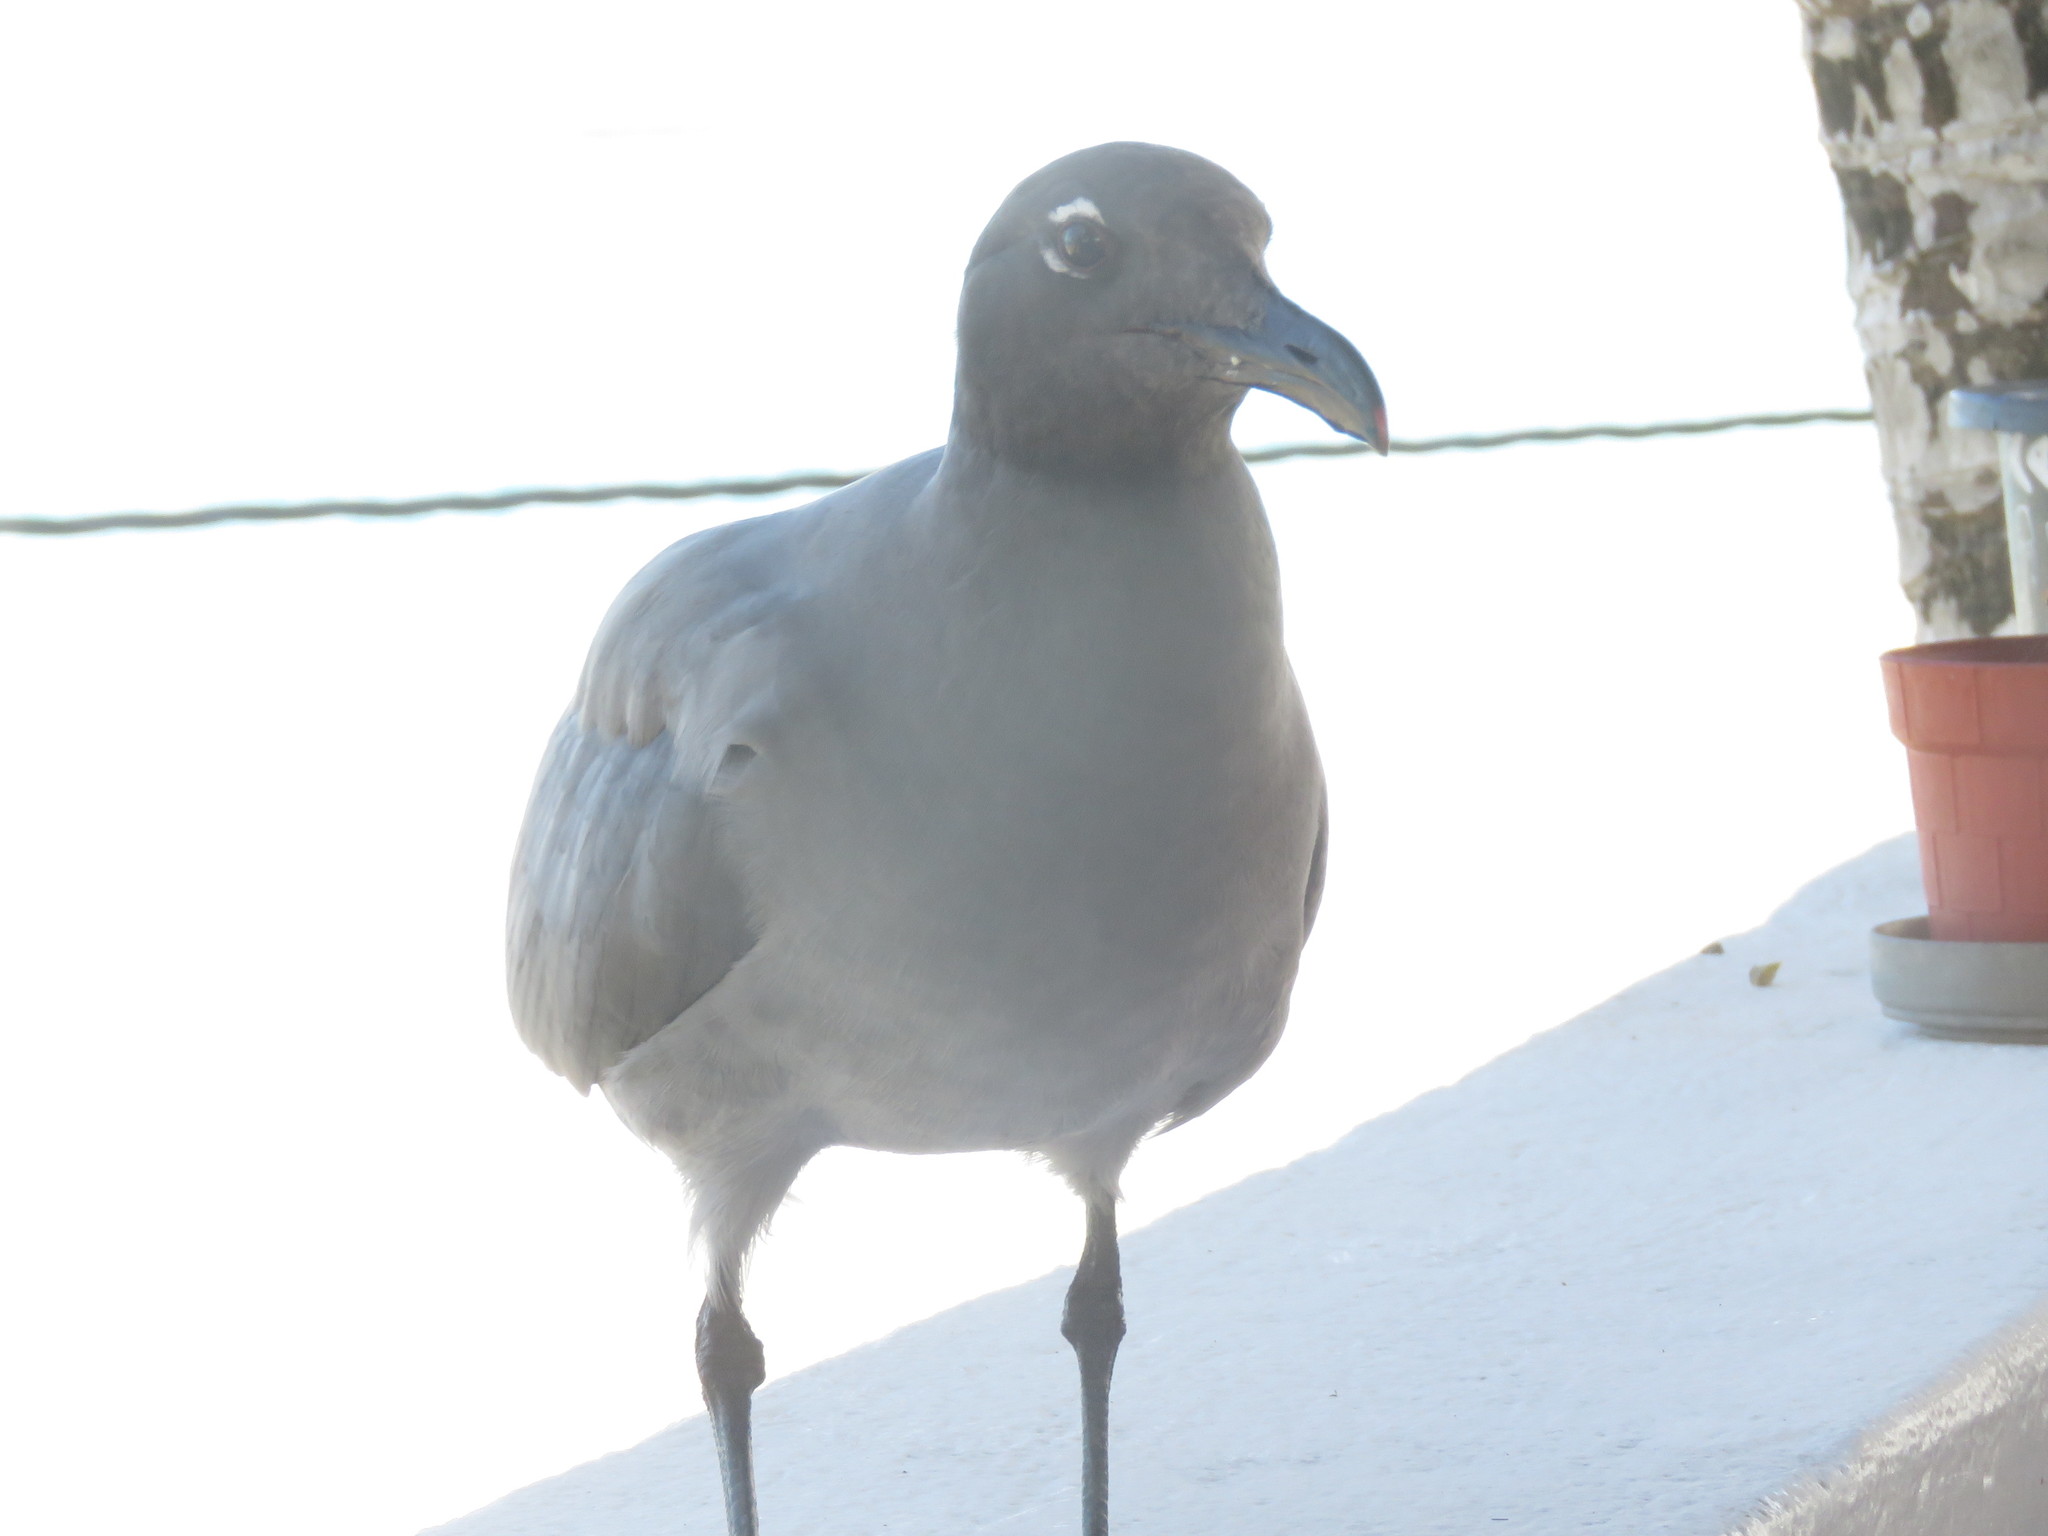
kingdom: Animalia
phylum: Chordata
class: Aves
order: Charadriiformes
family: Laridae
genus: Leucophaeus
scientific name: Leucophaeus fuliginosus
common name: Lava gull
